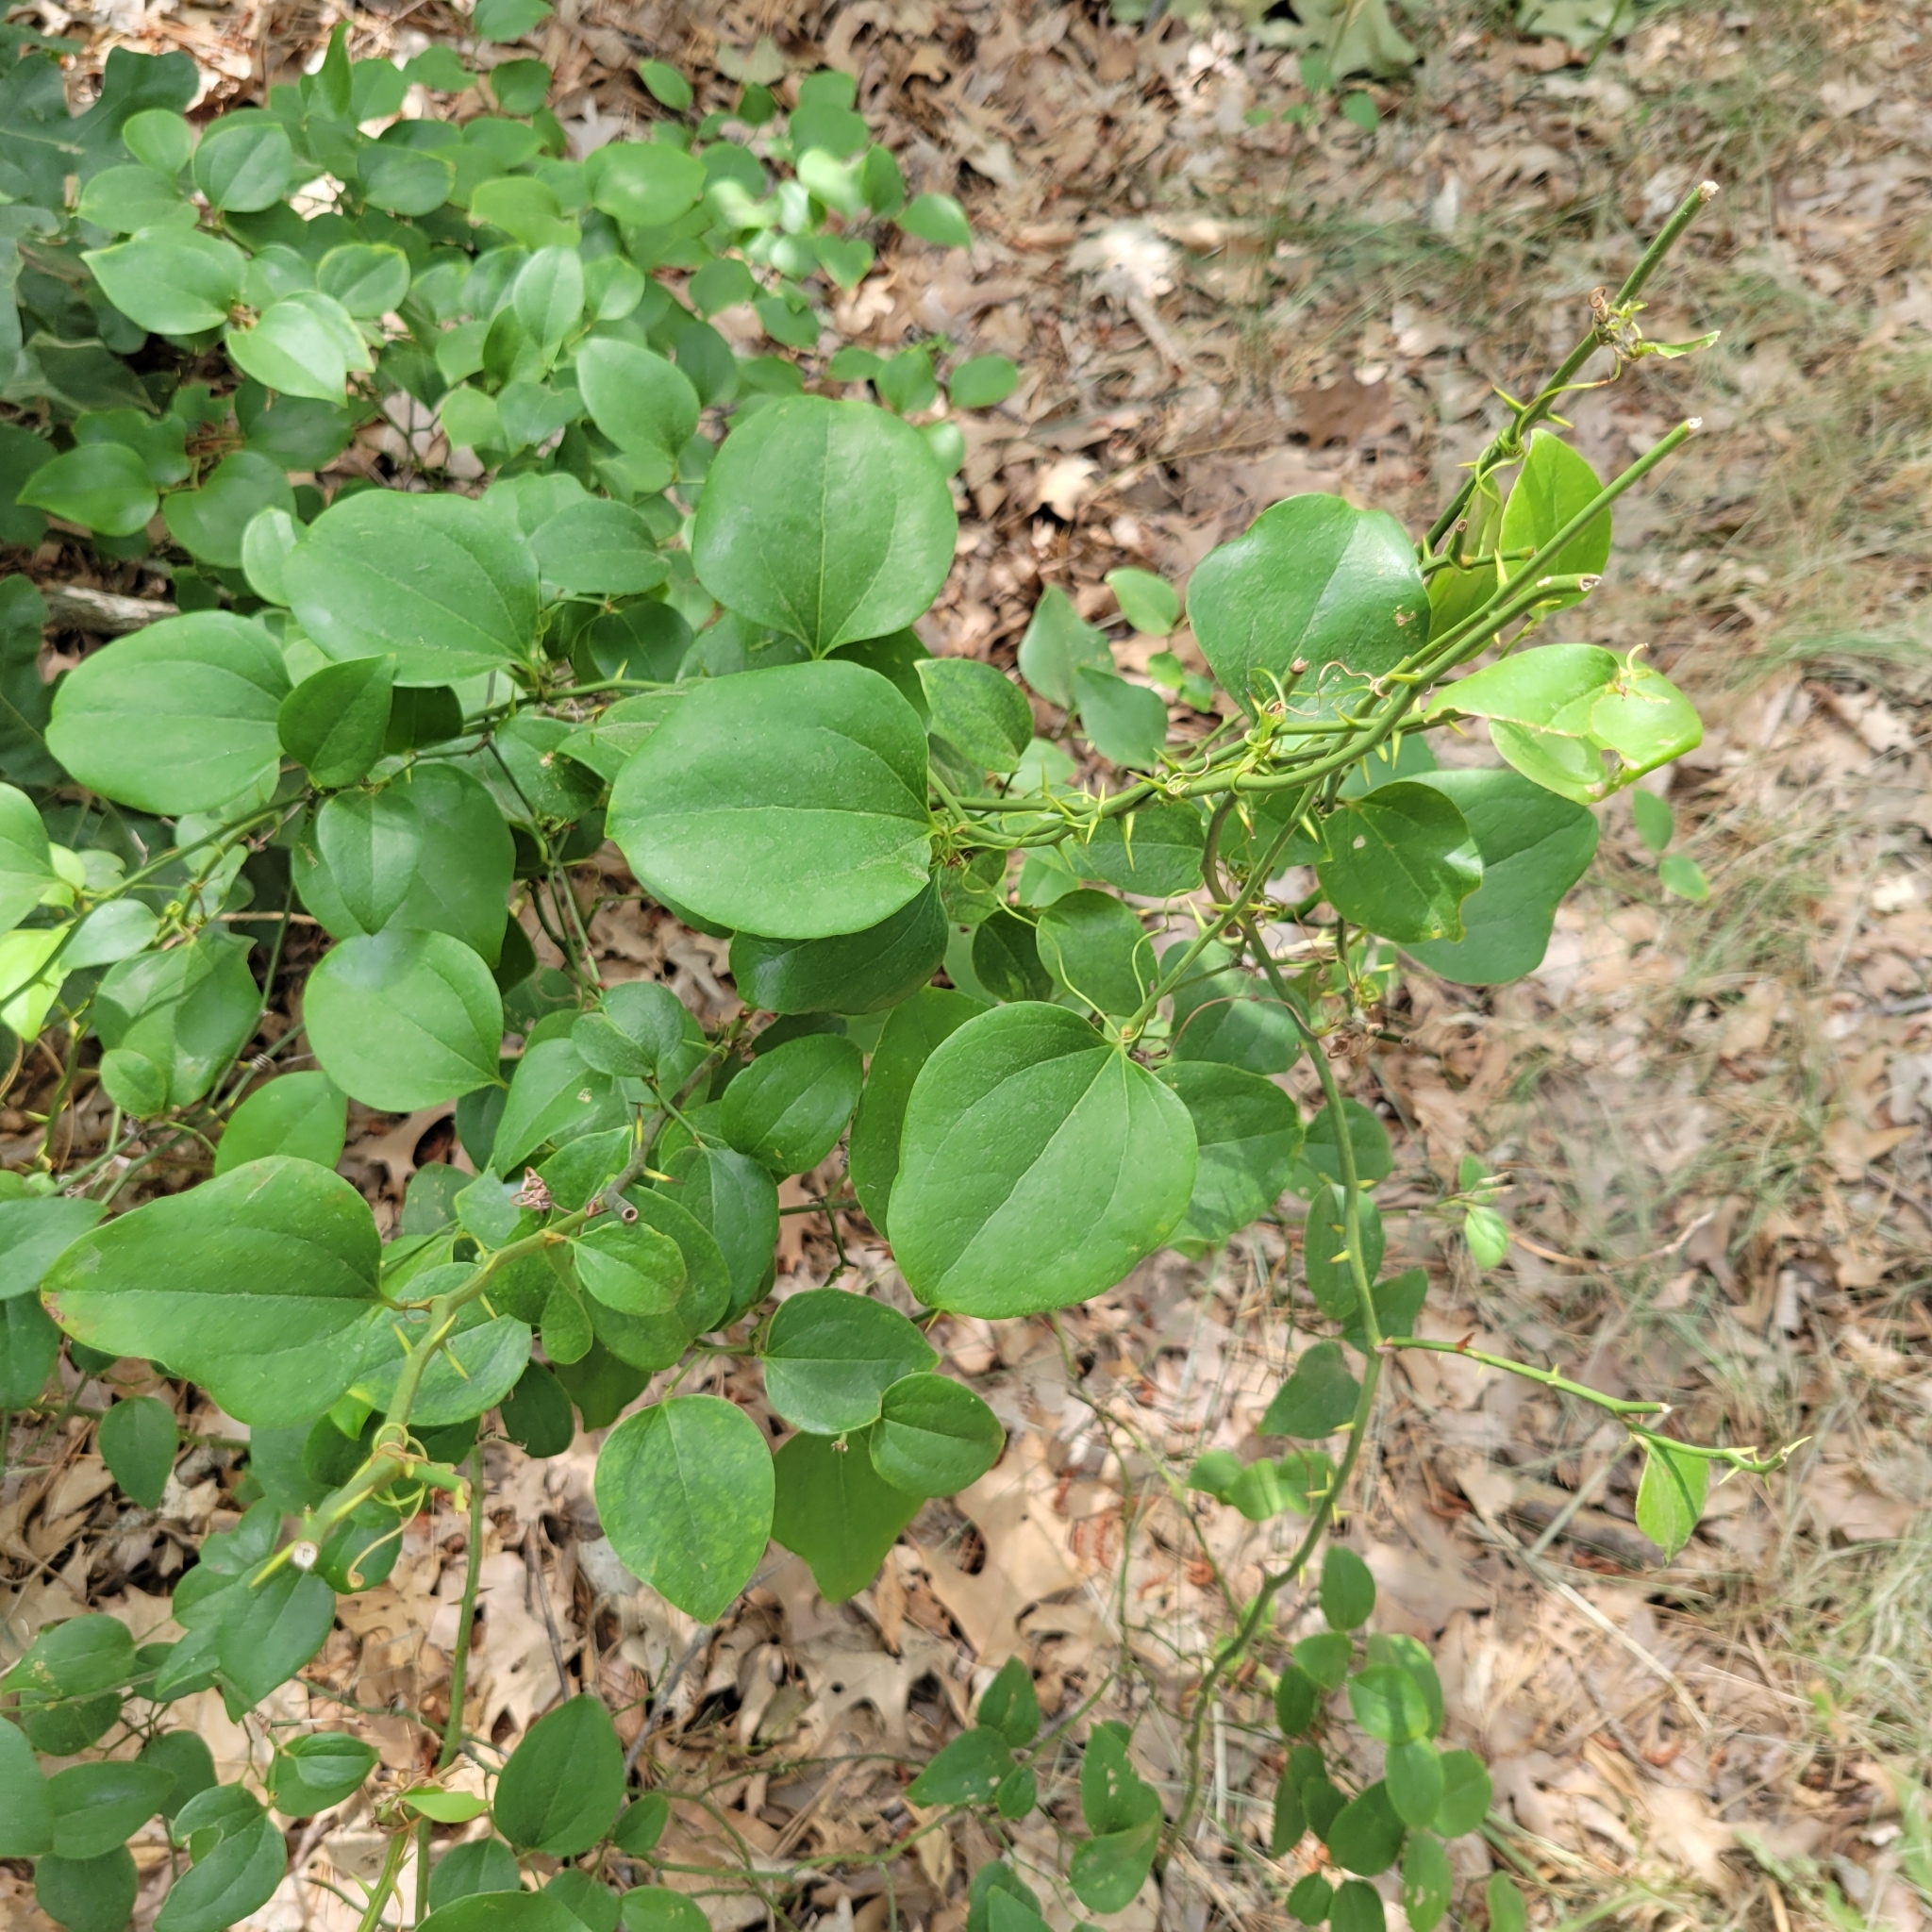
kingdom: Plantae
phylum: Tracheophyta
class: Liliopsida
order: Liliales
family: Smilacaceae
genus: Smilax
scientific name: Smilax rotundifolia
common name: Bullbriar
